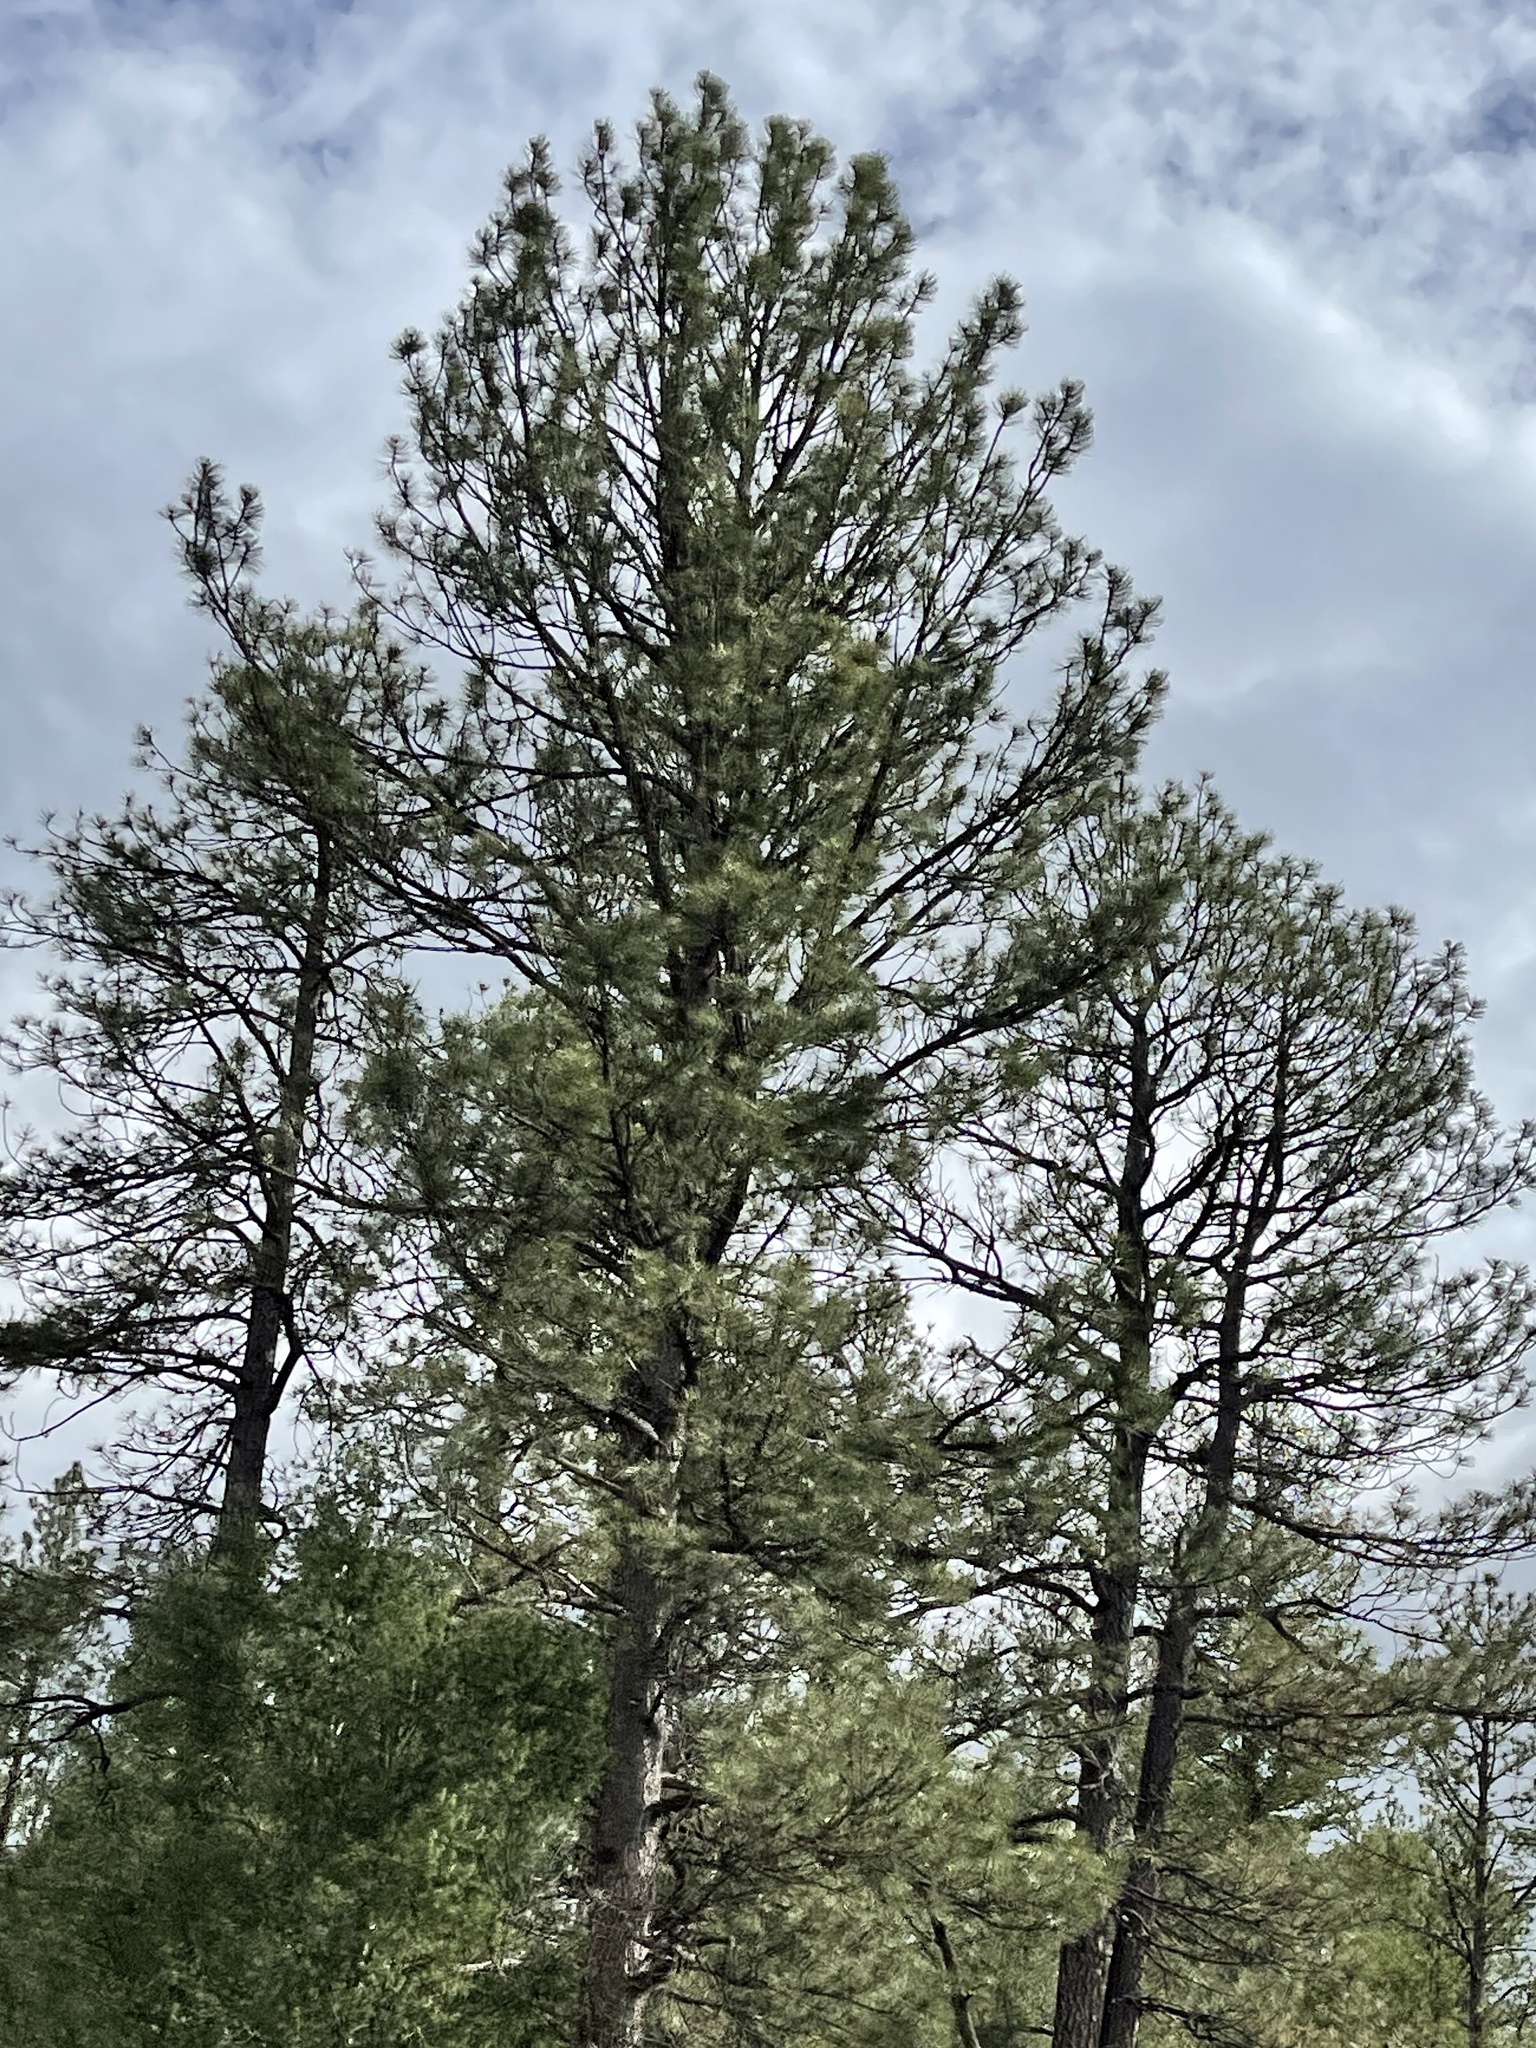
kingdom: Plantae
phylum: Tracheophyta
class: Pinopsida
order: Pinales
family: Pinaceae
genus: Pinus
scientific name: Pinus ponderosa
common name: Western yellow-pine
